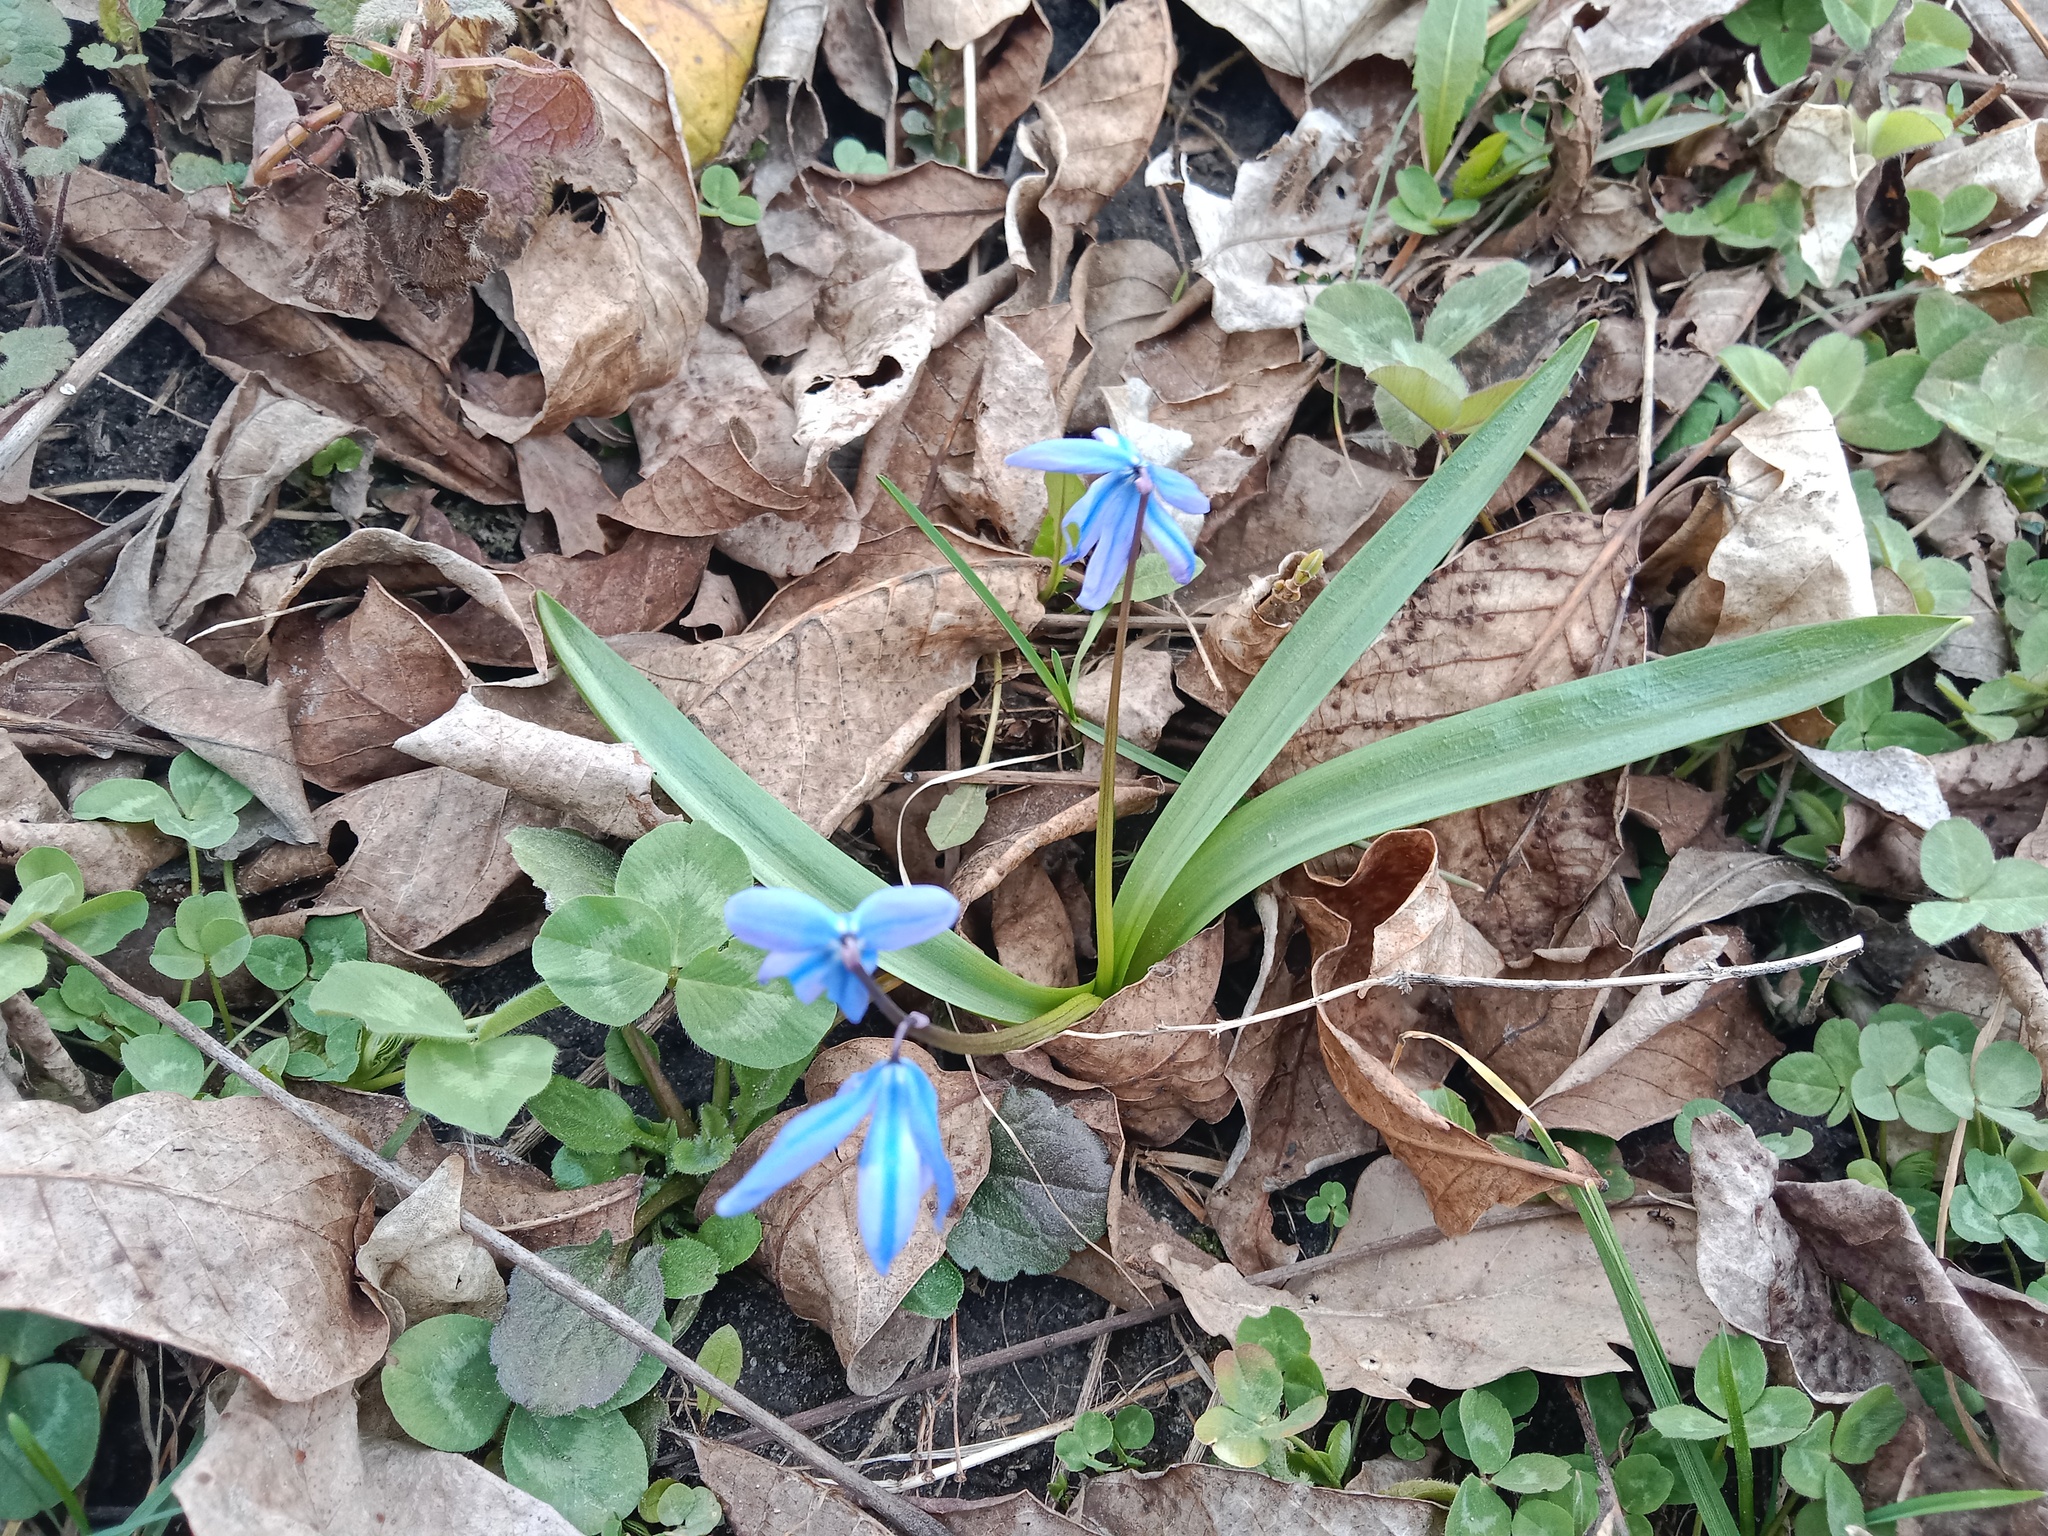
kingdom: Plantae
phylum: Tracheophyta
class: Liliopsida
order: Asparagales
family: Asparagaceae
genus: Scilla
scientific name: Scilla siberica
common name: Siberian squill
